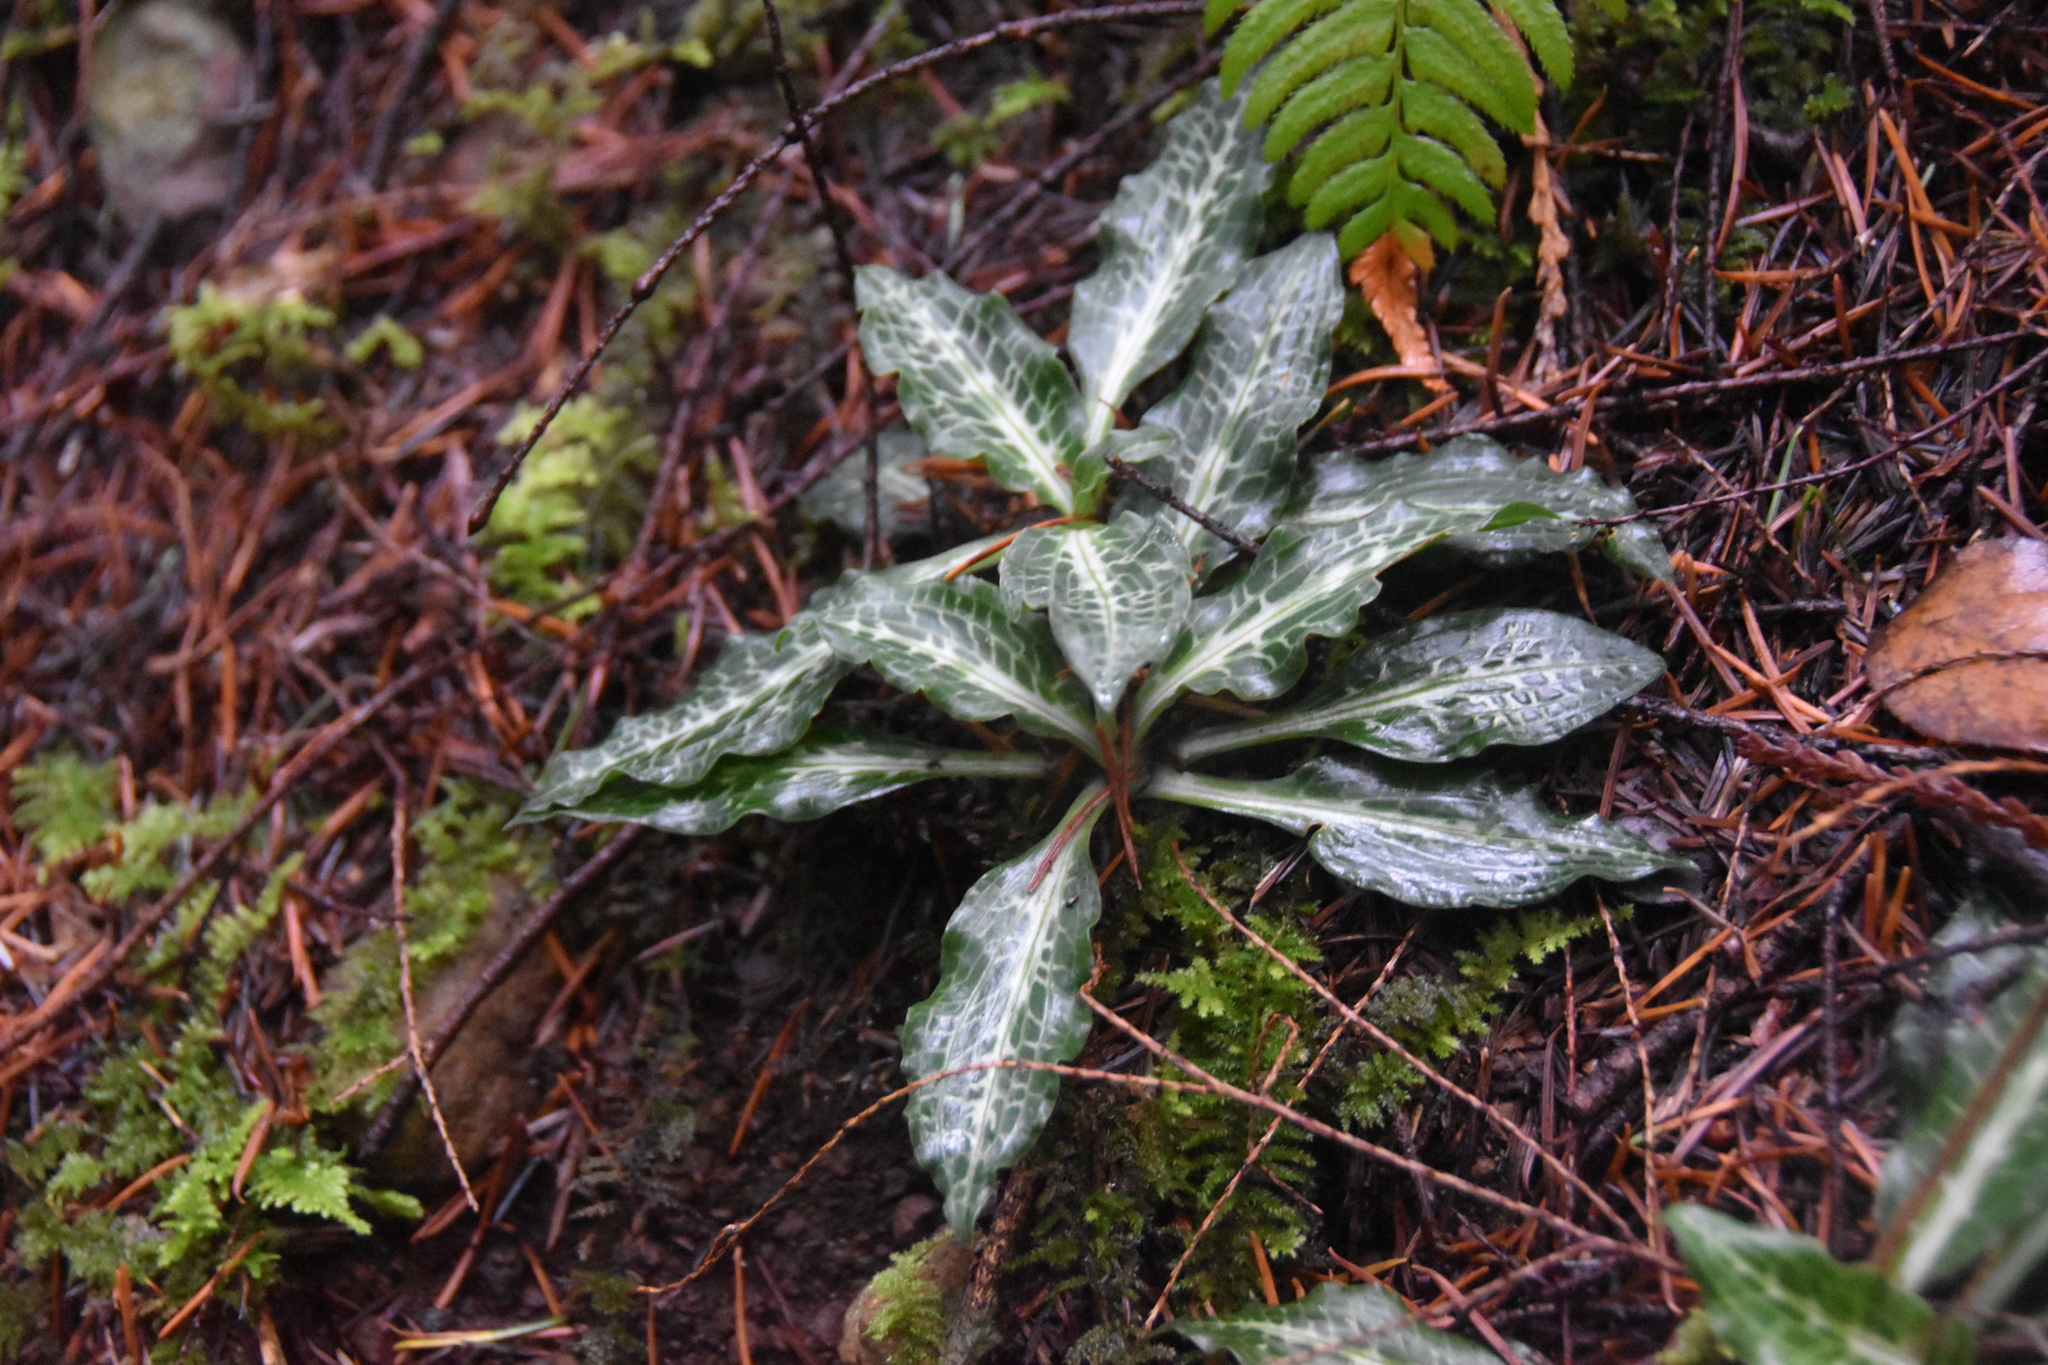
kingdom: Plantae
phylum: Tracheophyta
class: Liliopsida
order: Asparagales
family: Orchidaceae
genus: Goodyera
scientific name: Goodyera oblongifolia
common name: Giant rattlesnake-plantain
